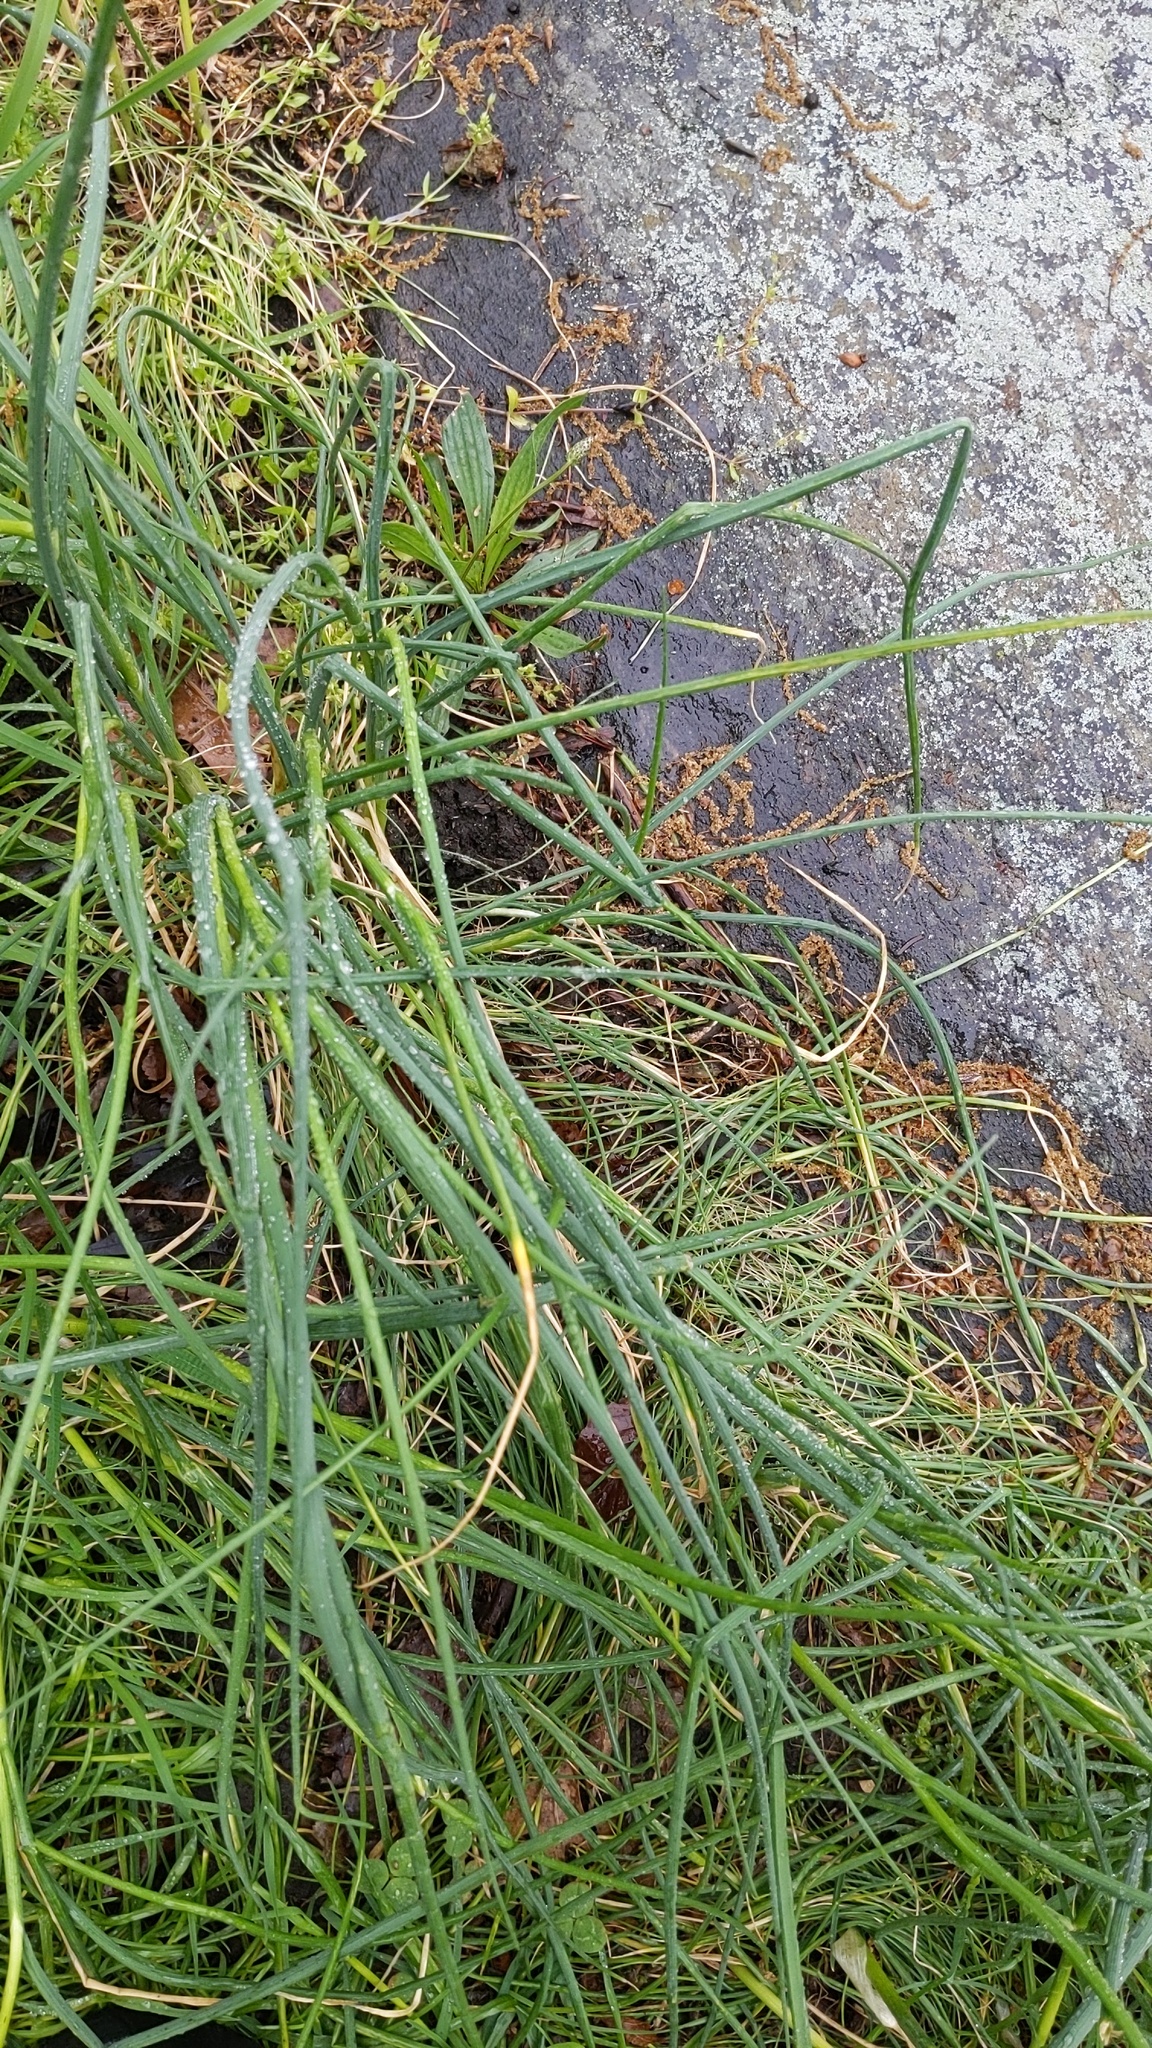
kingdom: Plantae
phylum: Tracheophyta
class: Liliopsida
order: Asparagales
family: Amaryllidaceae
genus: Allium
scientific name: Allium vineale
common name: Crow garlic
